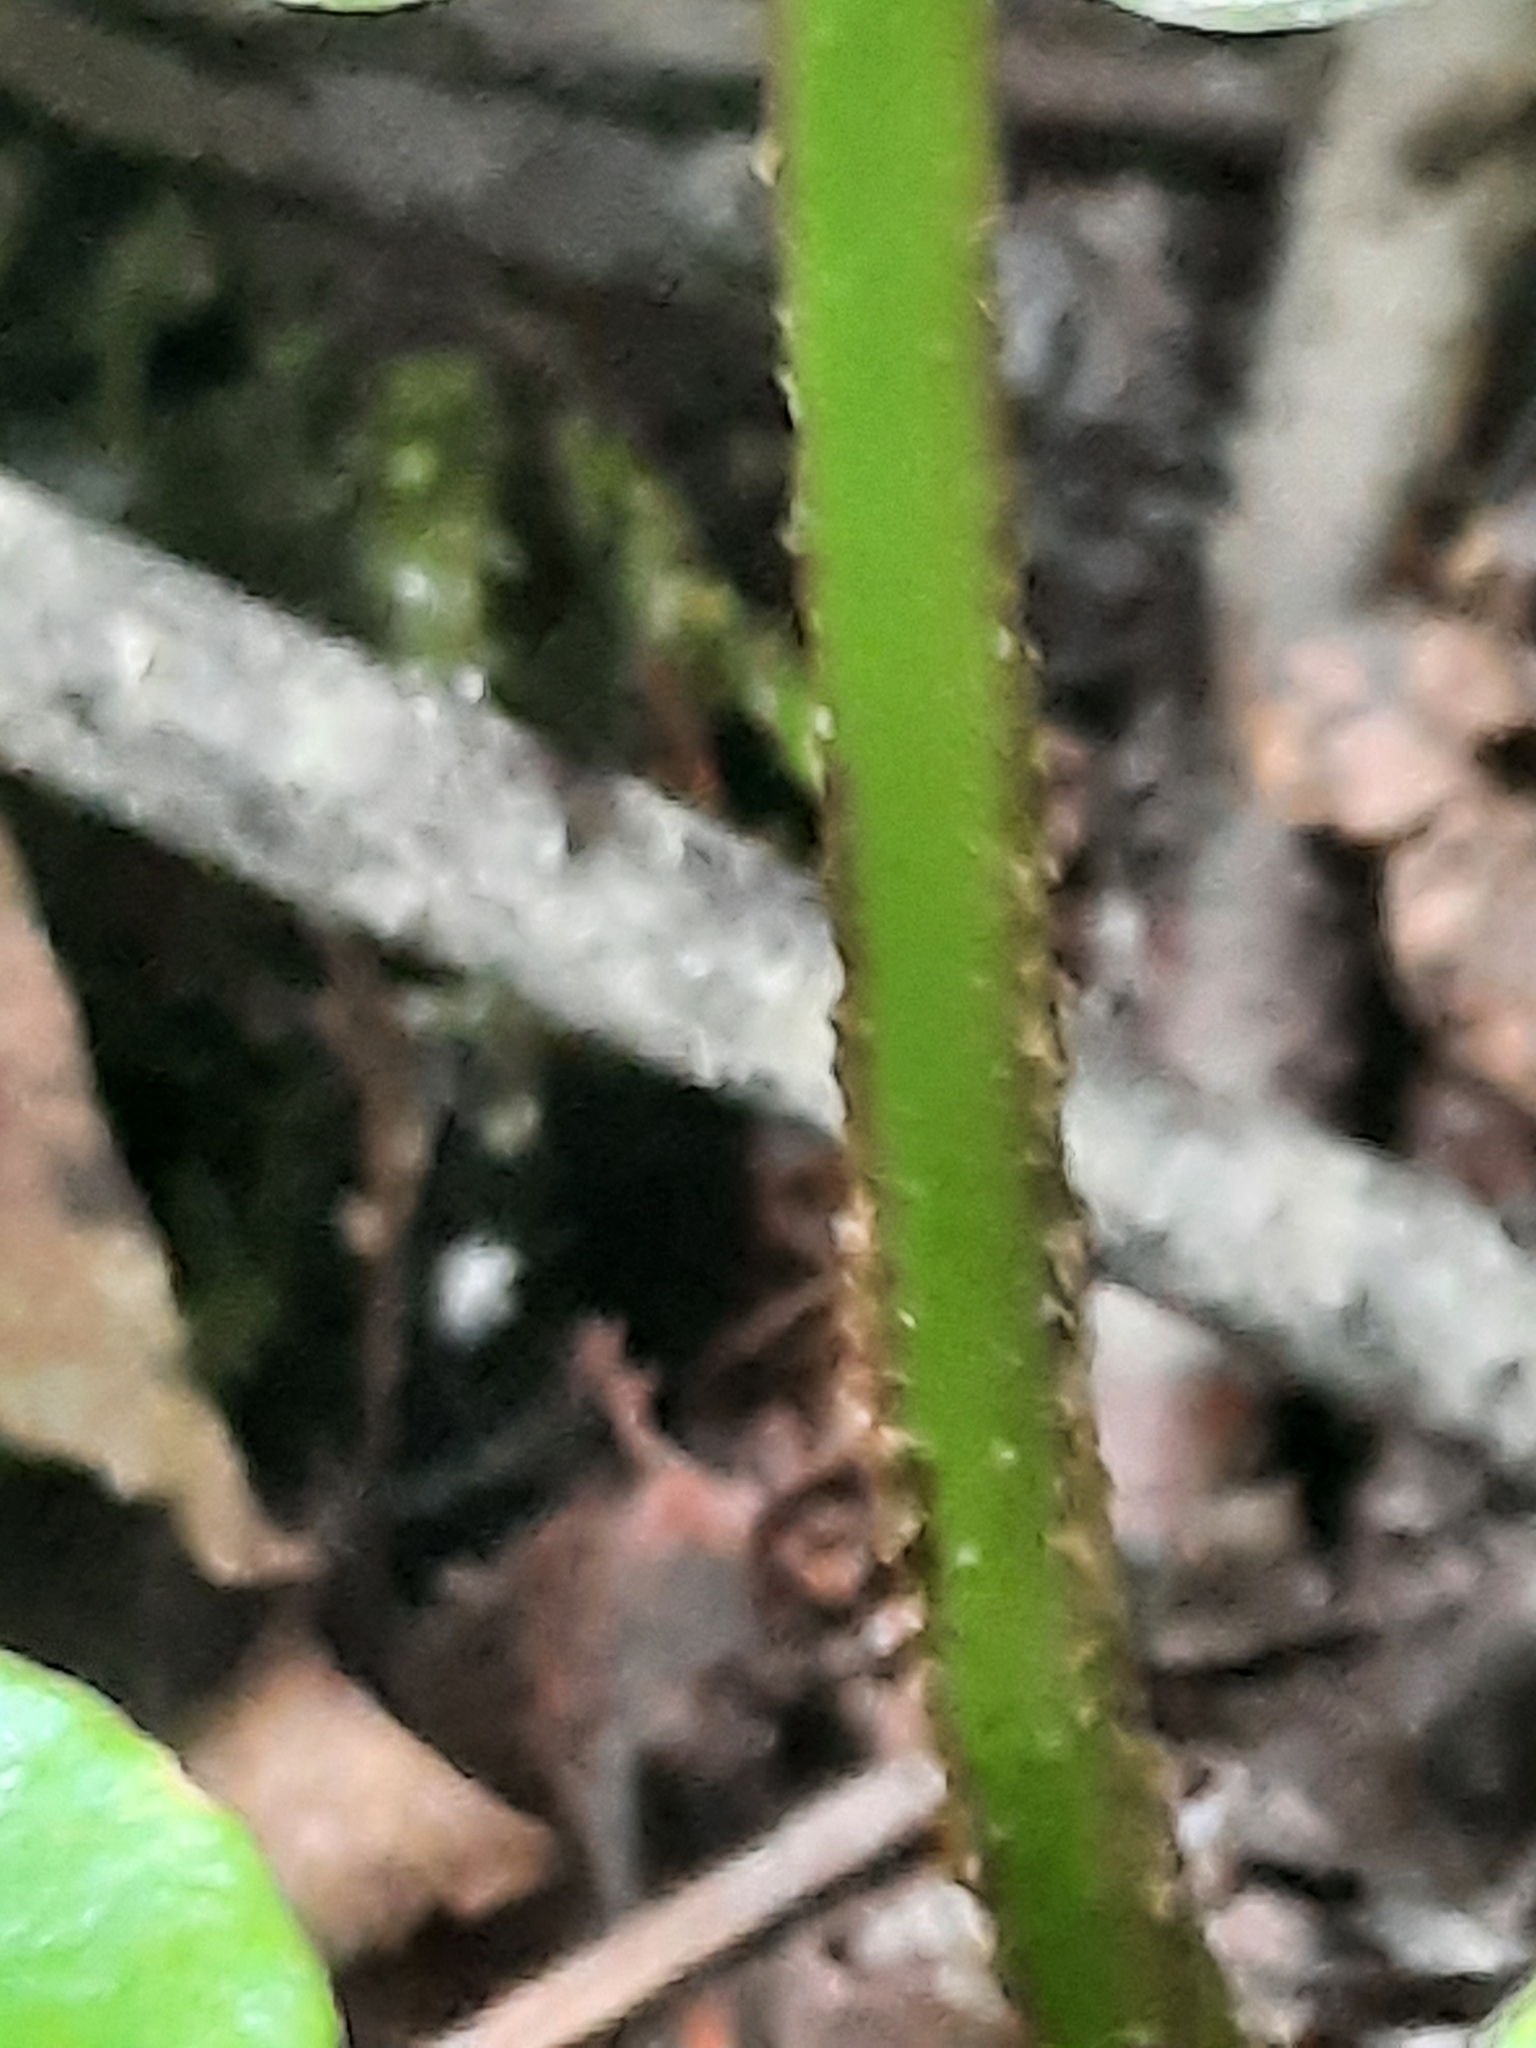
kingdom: Plantae
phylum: Tracheophyta
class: Polypodiopsida
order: Polypodiales
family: Aspleniaceae
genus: Asplenium
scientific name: Asplenium scolopendrium
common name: Hart's-tongue fern
